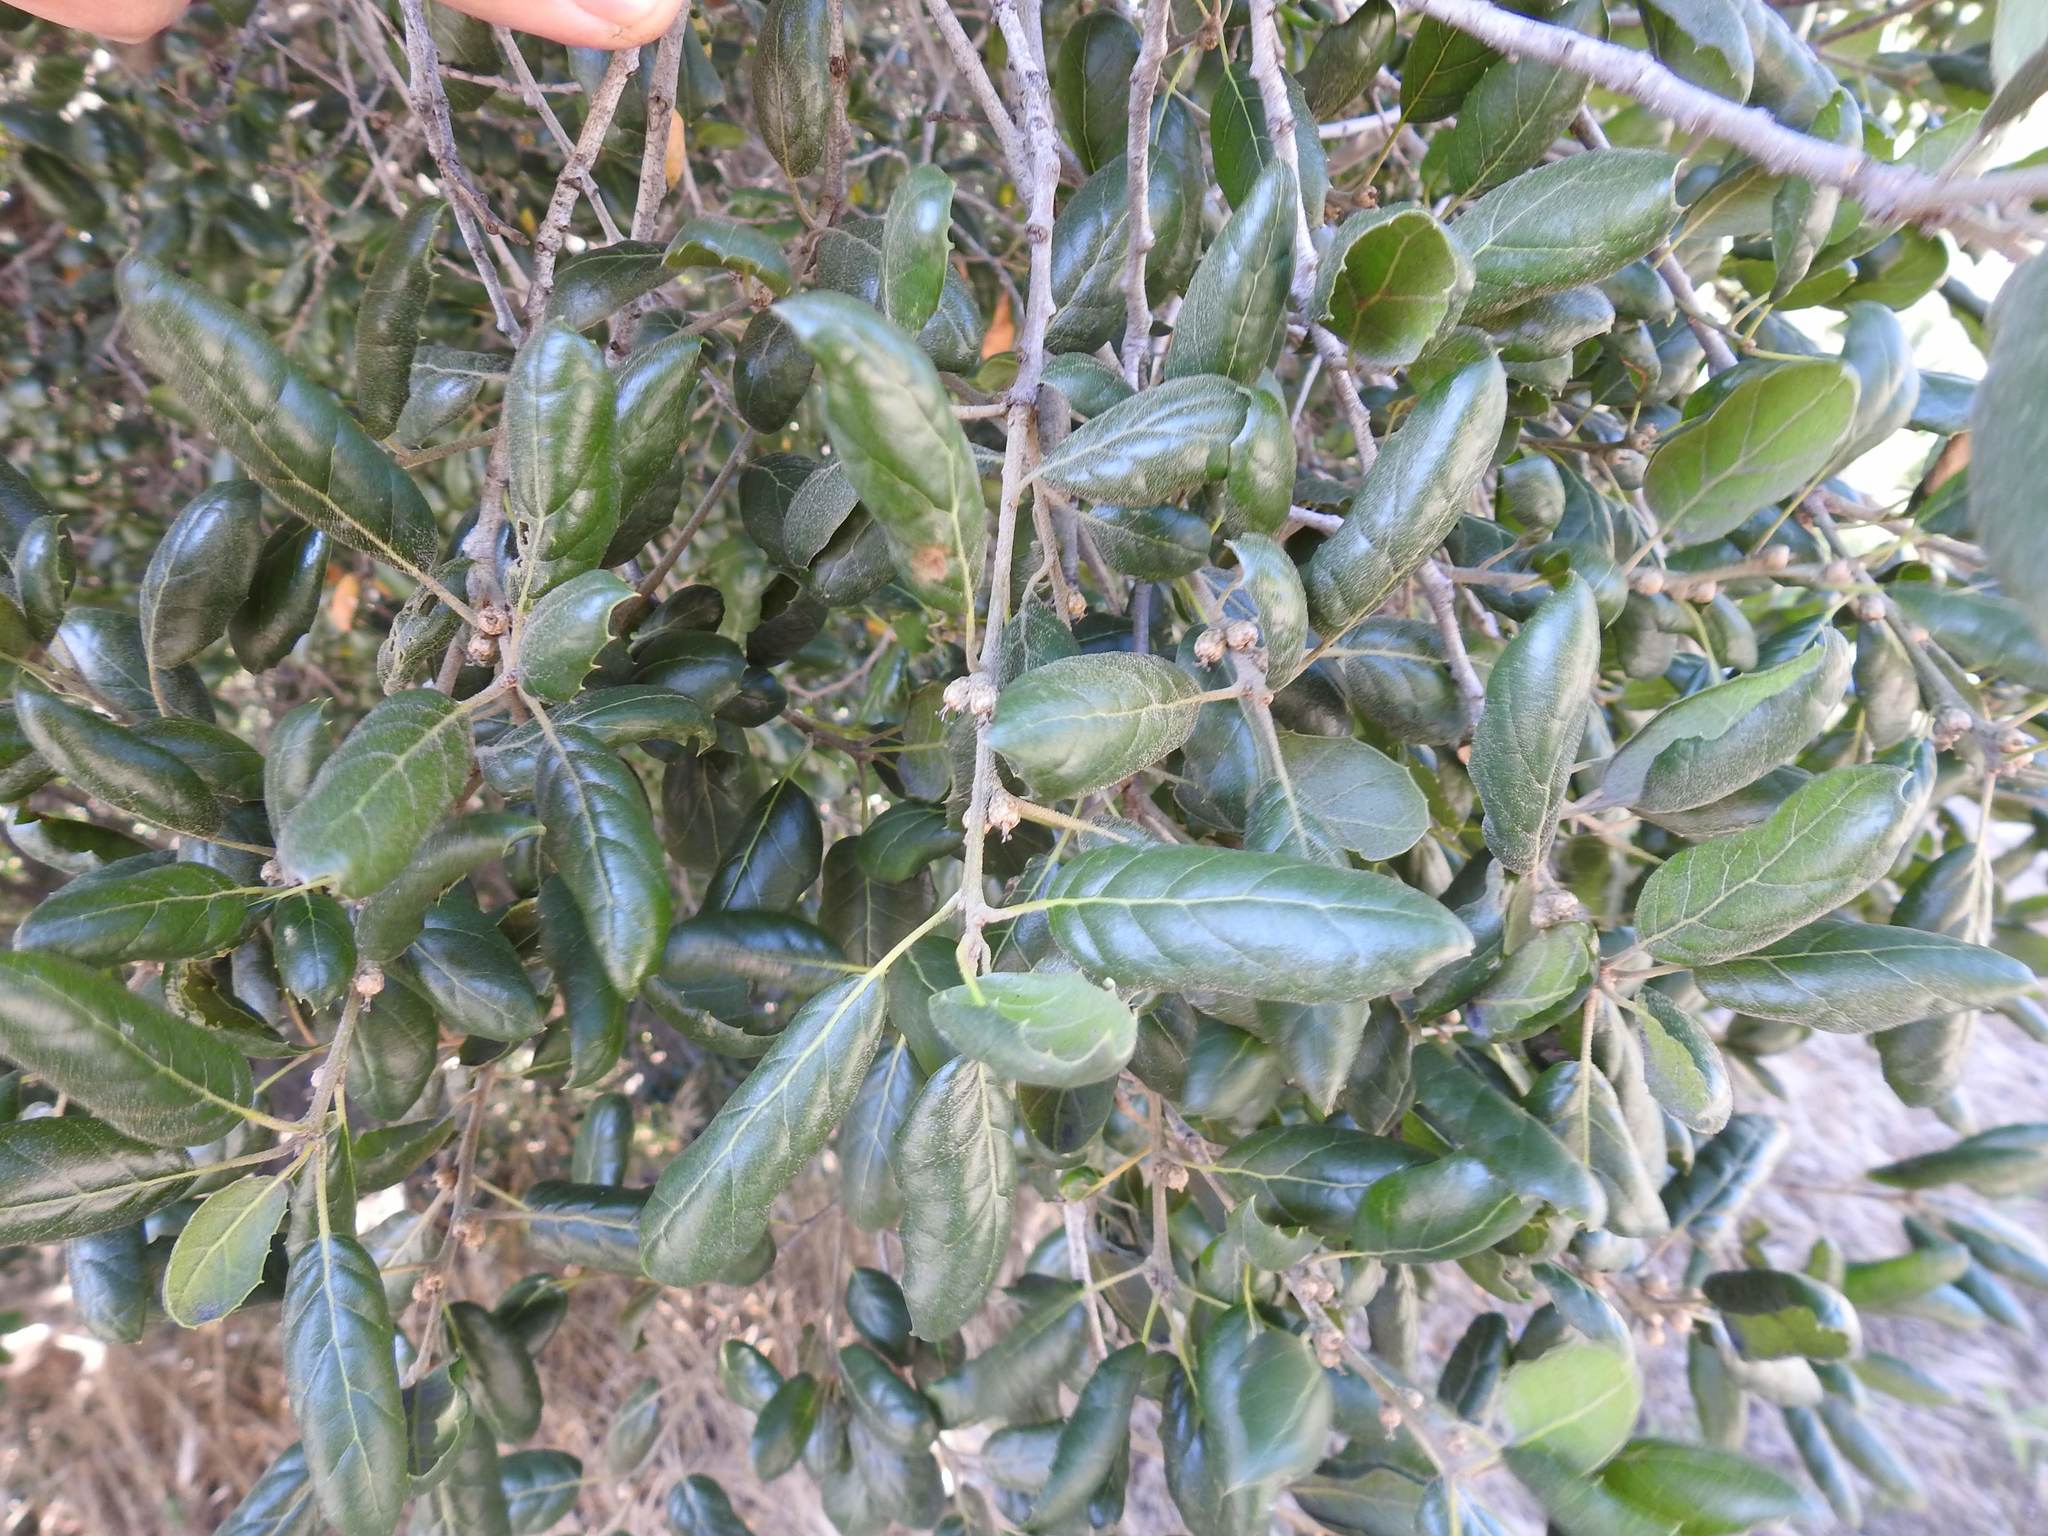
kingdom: Plantae
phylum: Tracheophyta
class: Magnoliopsida
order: Fagales
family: Fagaceae
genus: Quercus
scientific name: Quercus agrifolia
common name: California live oak
